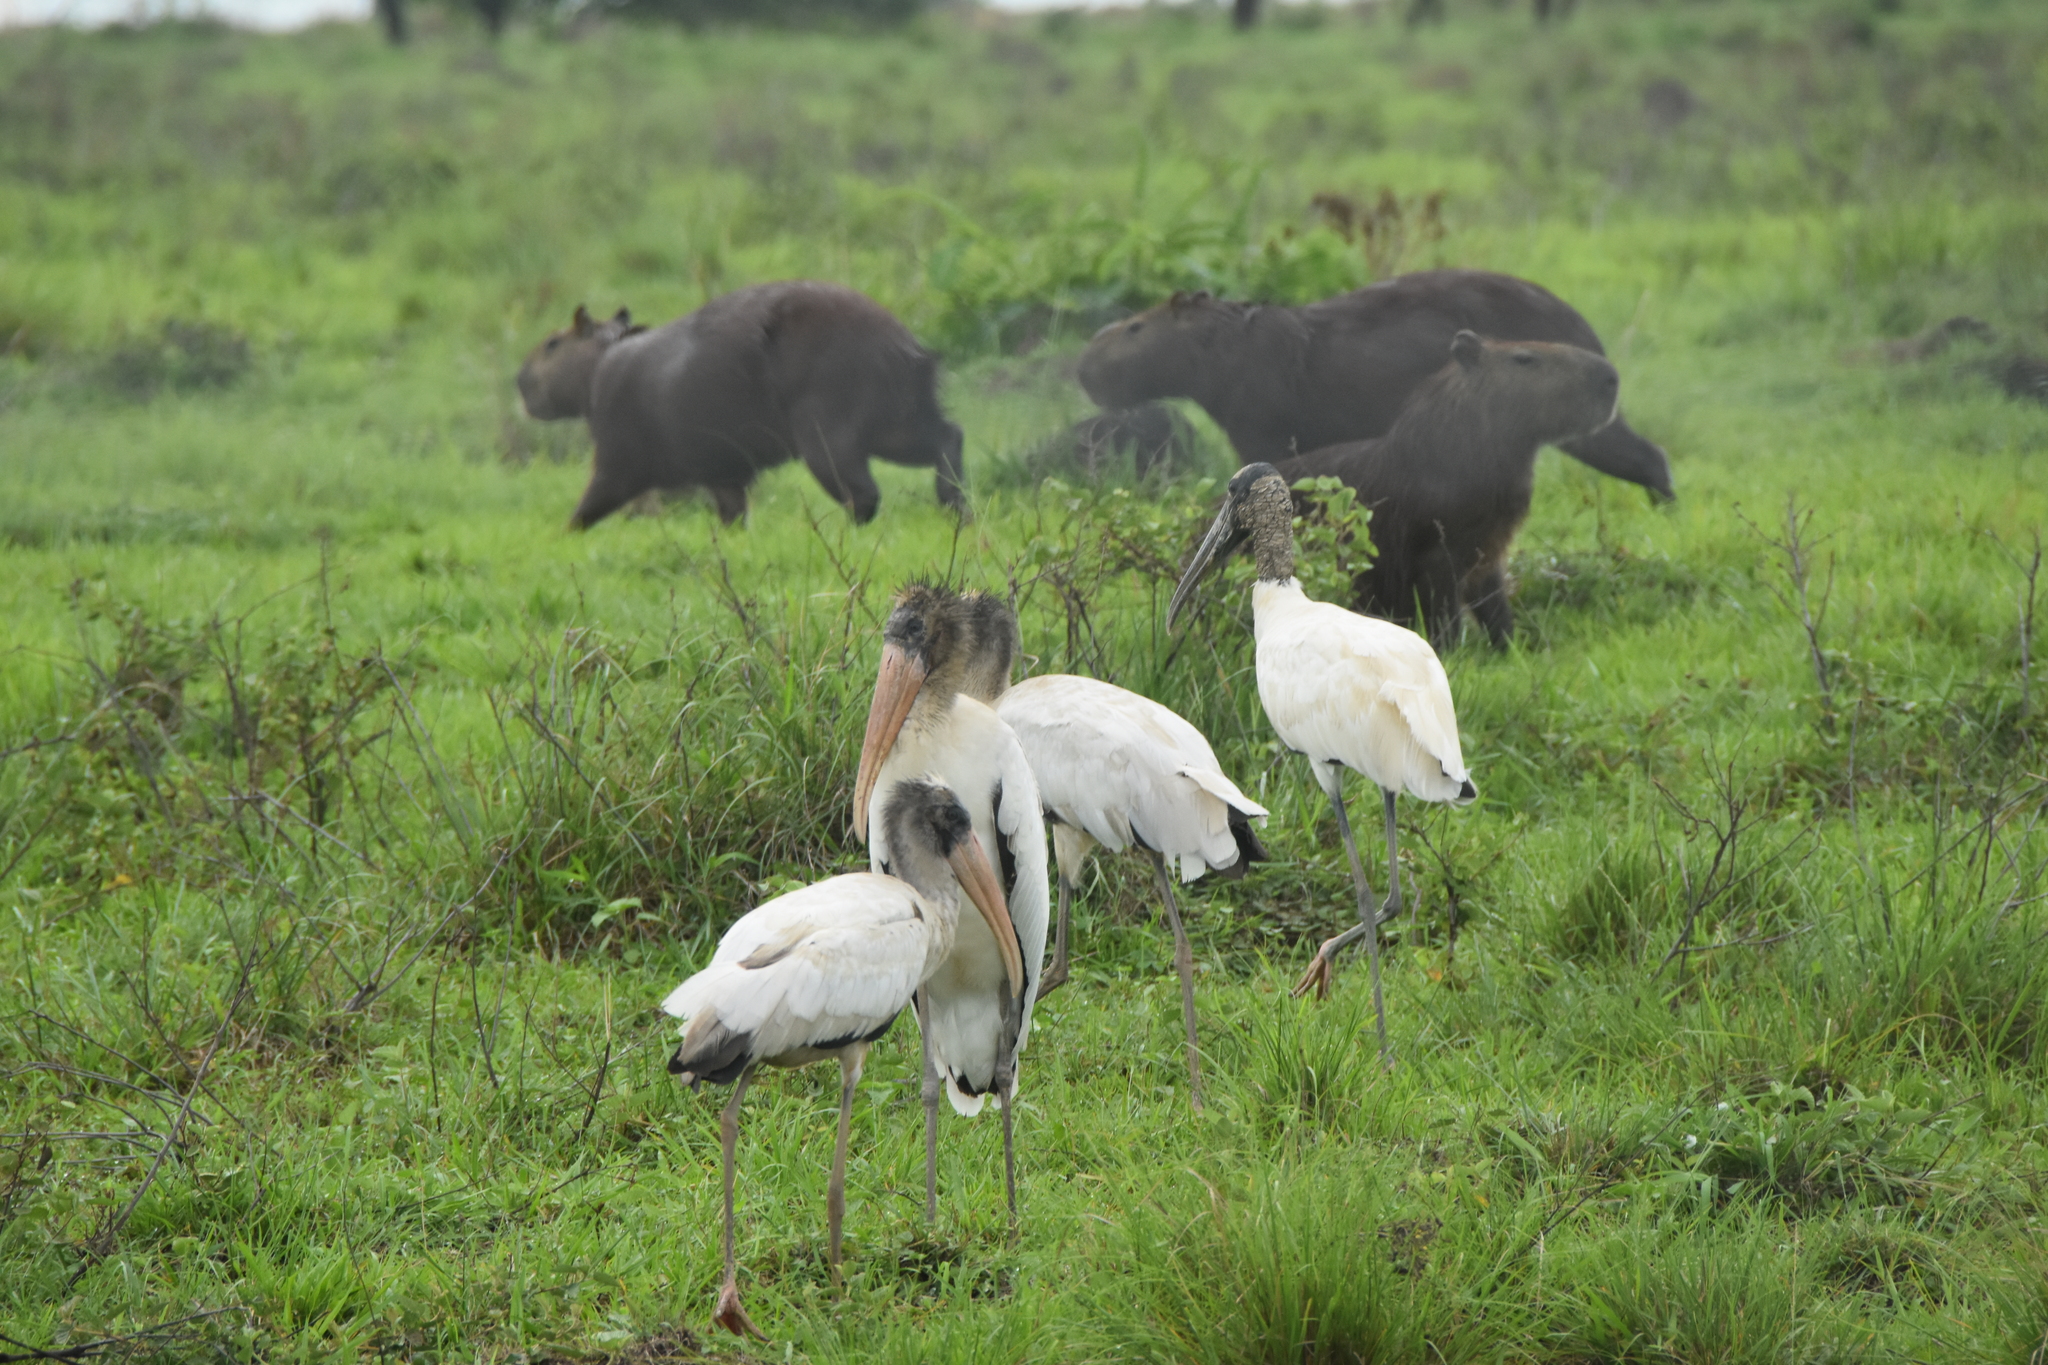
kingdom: Animalia
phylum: Chordata
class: Aves
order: Ciconiiformes
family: Ciconiidae
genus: Mycteria
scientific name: Mycteria americana
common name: Wood stork
